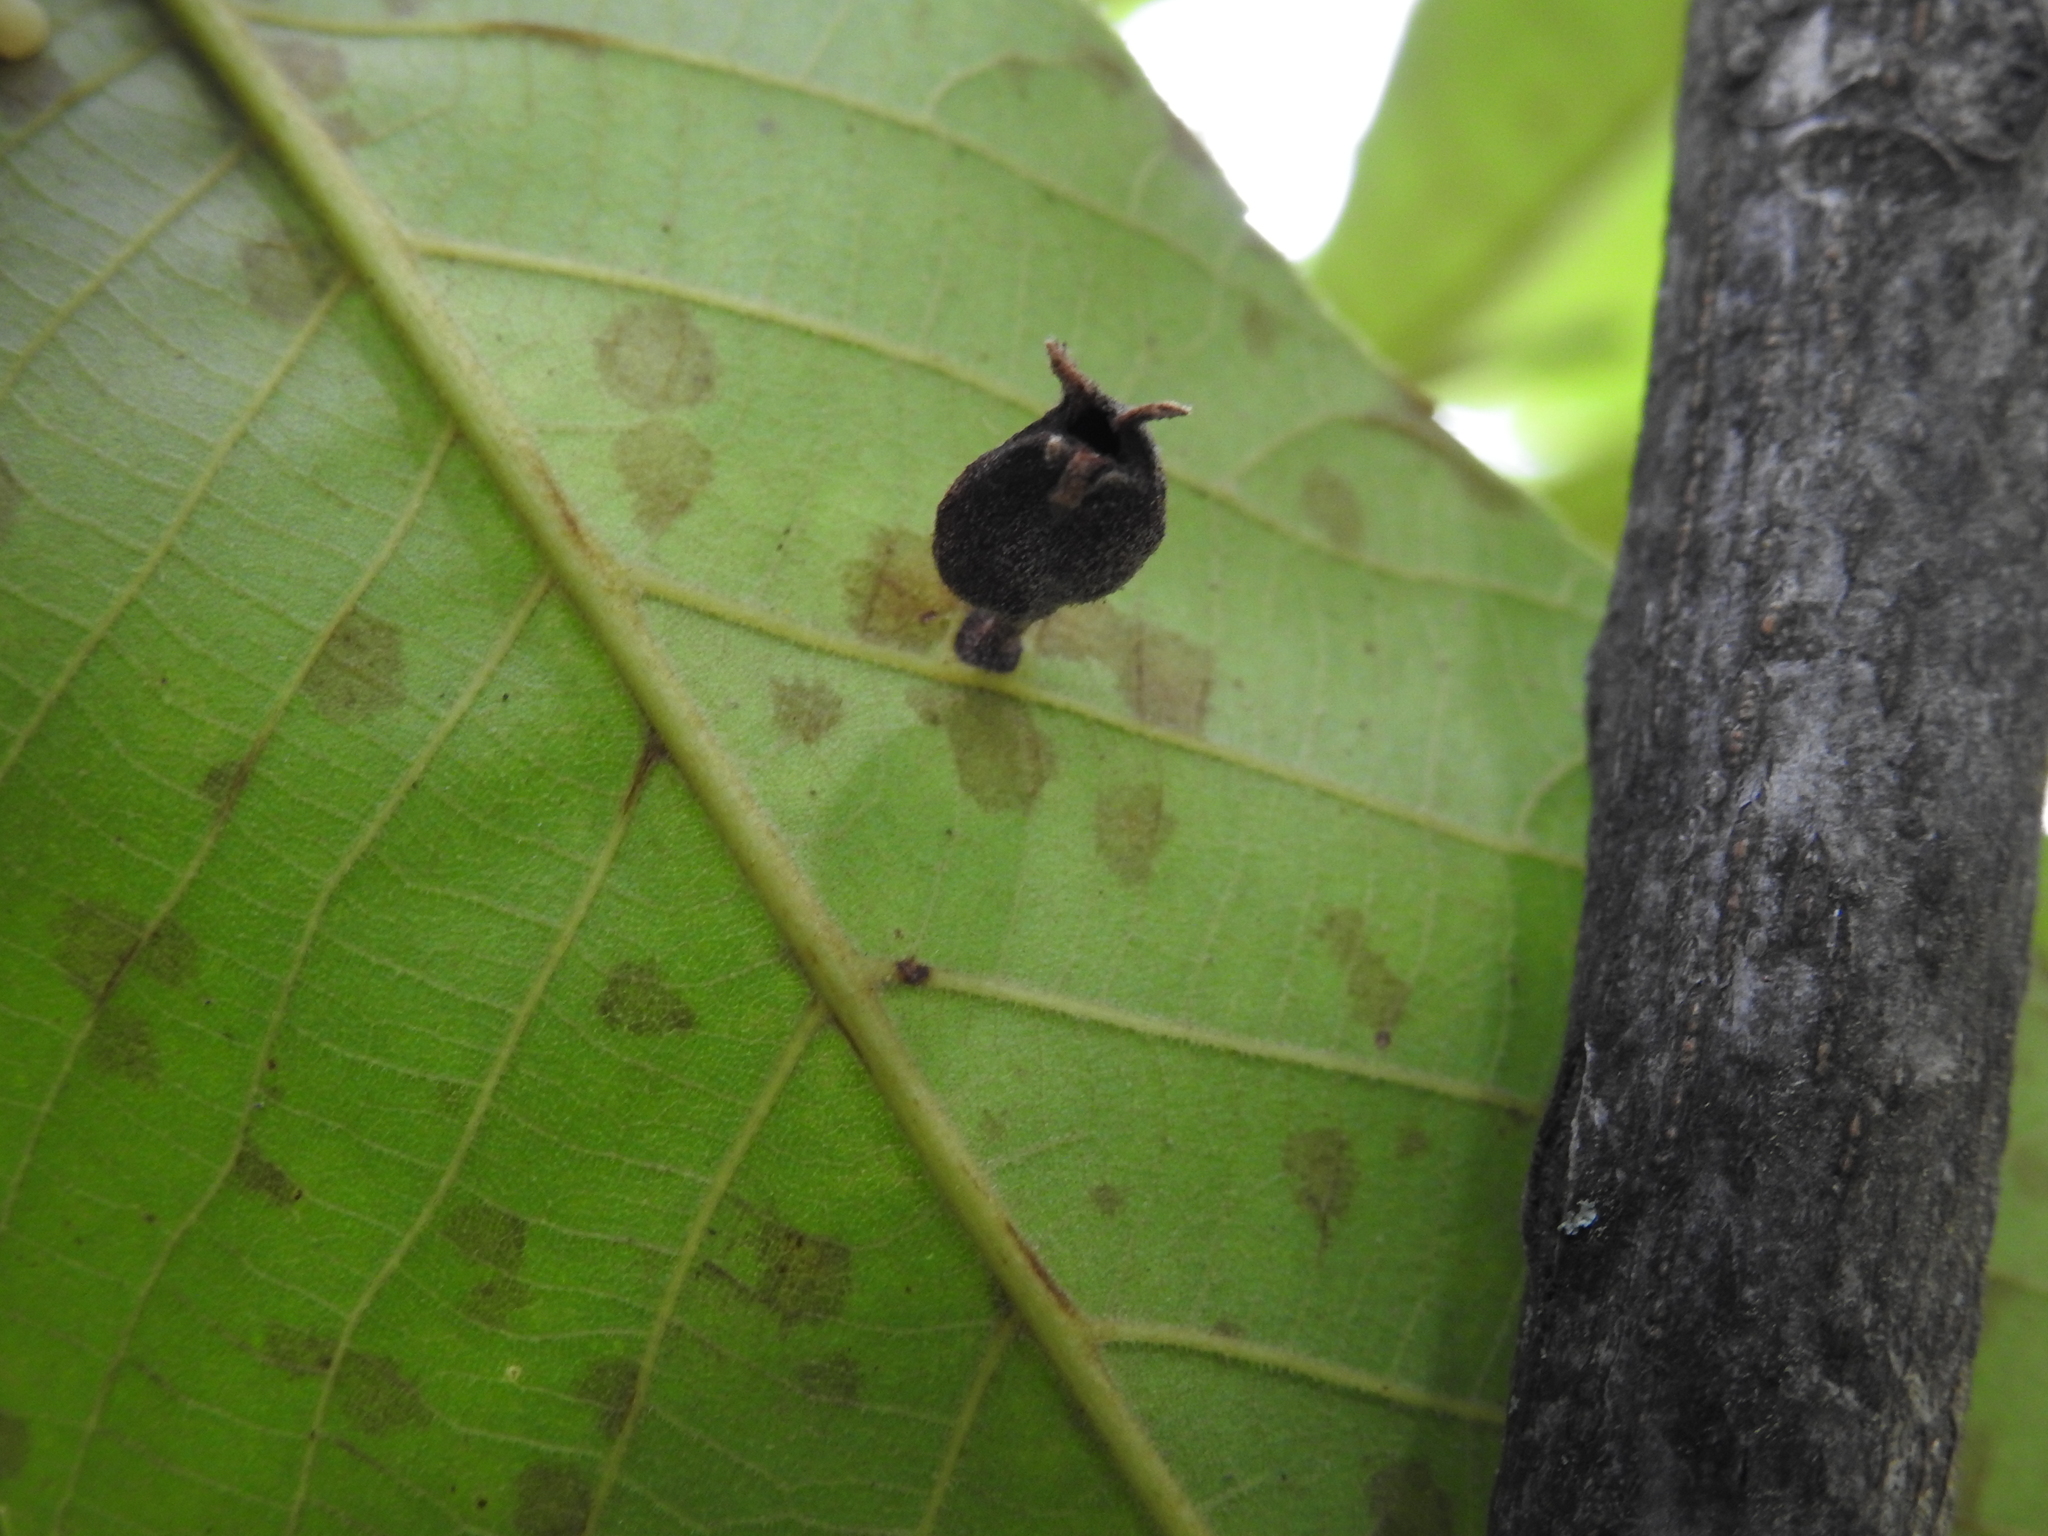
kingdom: Animalia
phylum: Arthropoda
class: Insecta
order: Hemiptera
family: Phylloxeridae
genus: Phylloxera
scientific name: Phylloxera caryaegummosa
